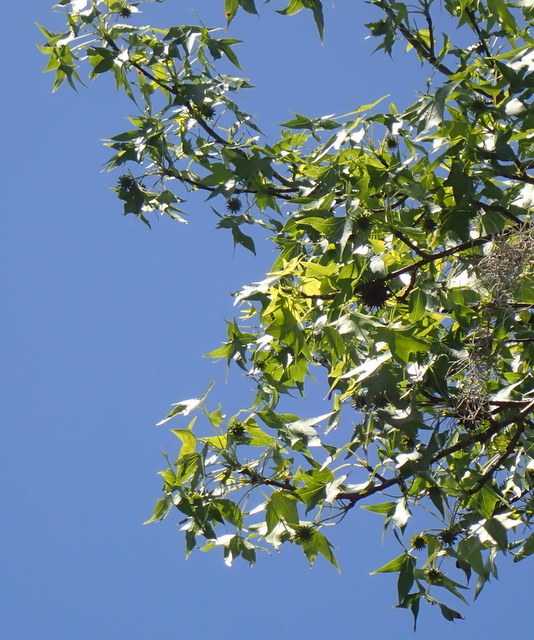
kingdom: Plantae
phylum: Tracheophyta
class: Magnoliopsida
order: Saxifragales
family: Altingiaceae
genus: Liquidambar
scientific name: Liquidambar styraciflua
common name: Sweet gum
